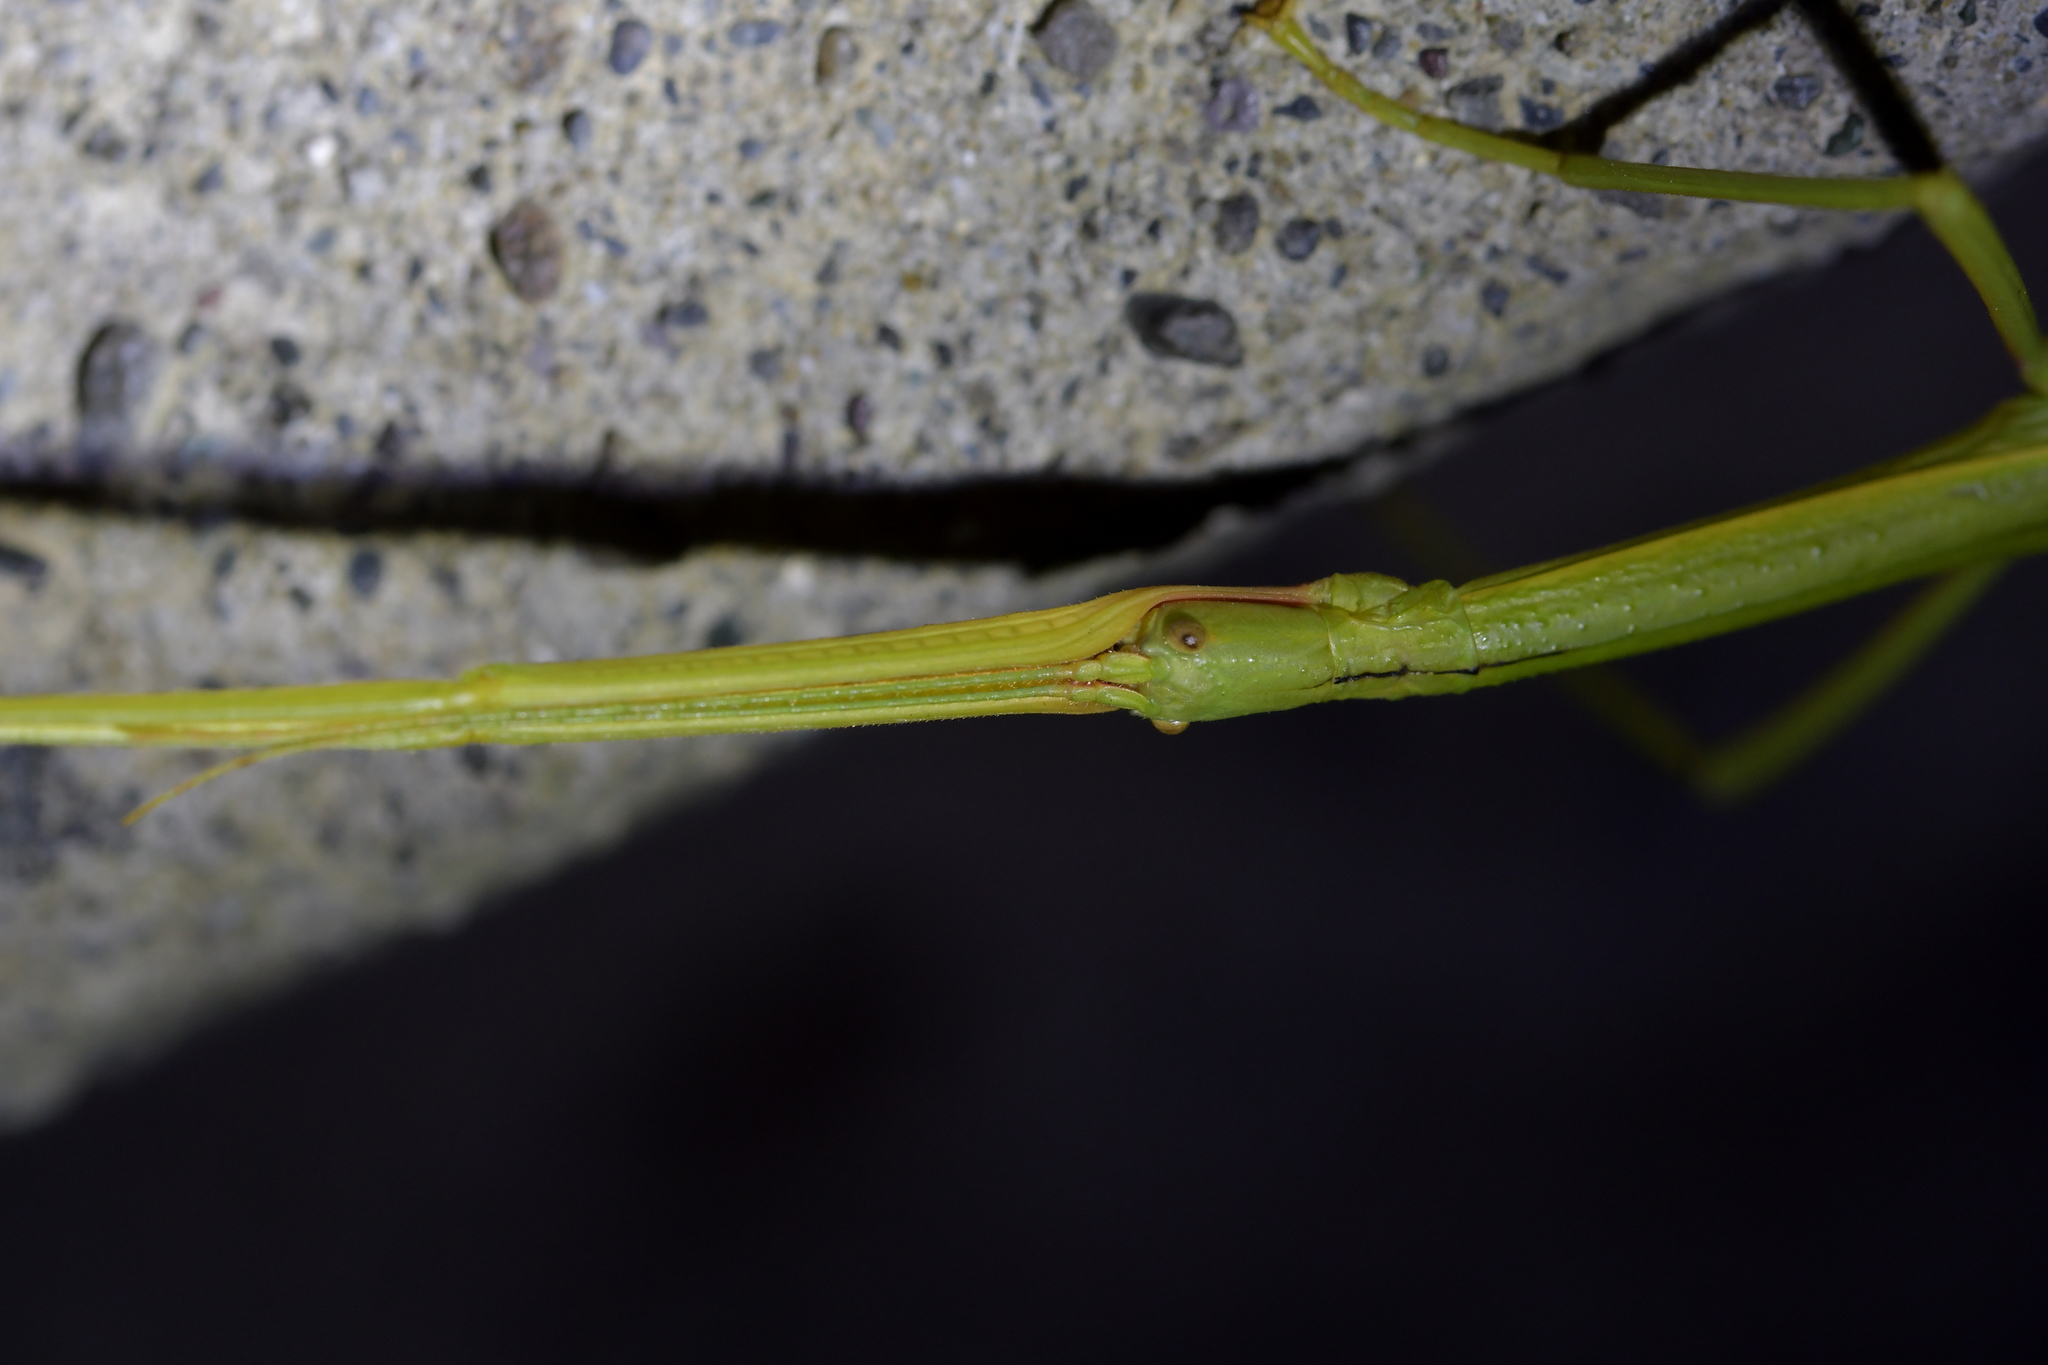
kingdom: Animalia
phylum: Arthropoda
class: Insecta
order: Phasmida
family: Phasmatidae
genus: Clitarchus
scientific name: Clitarchus hookeri
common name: Smooth stick insect
